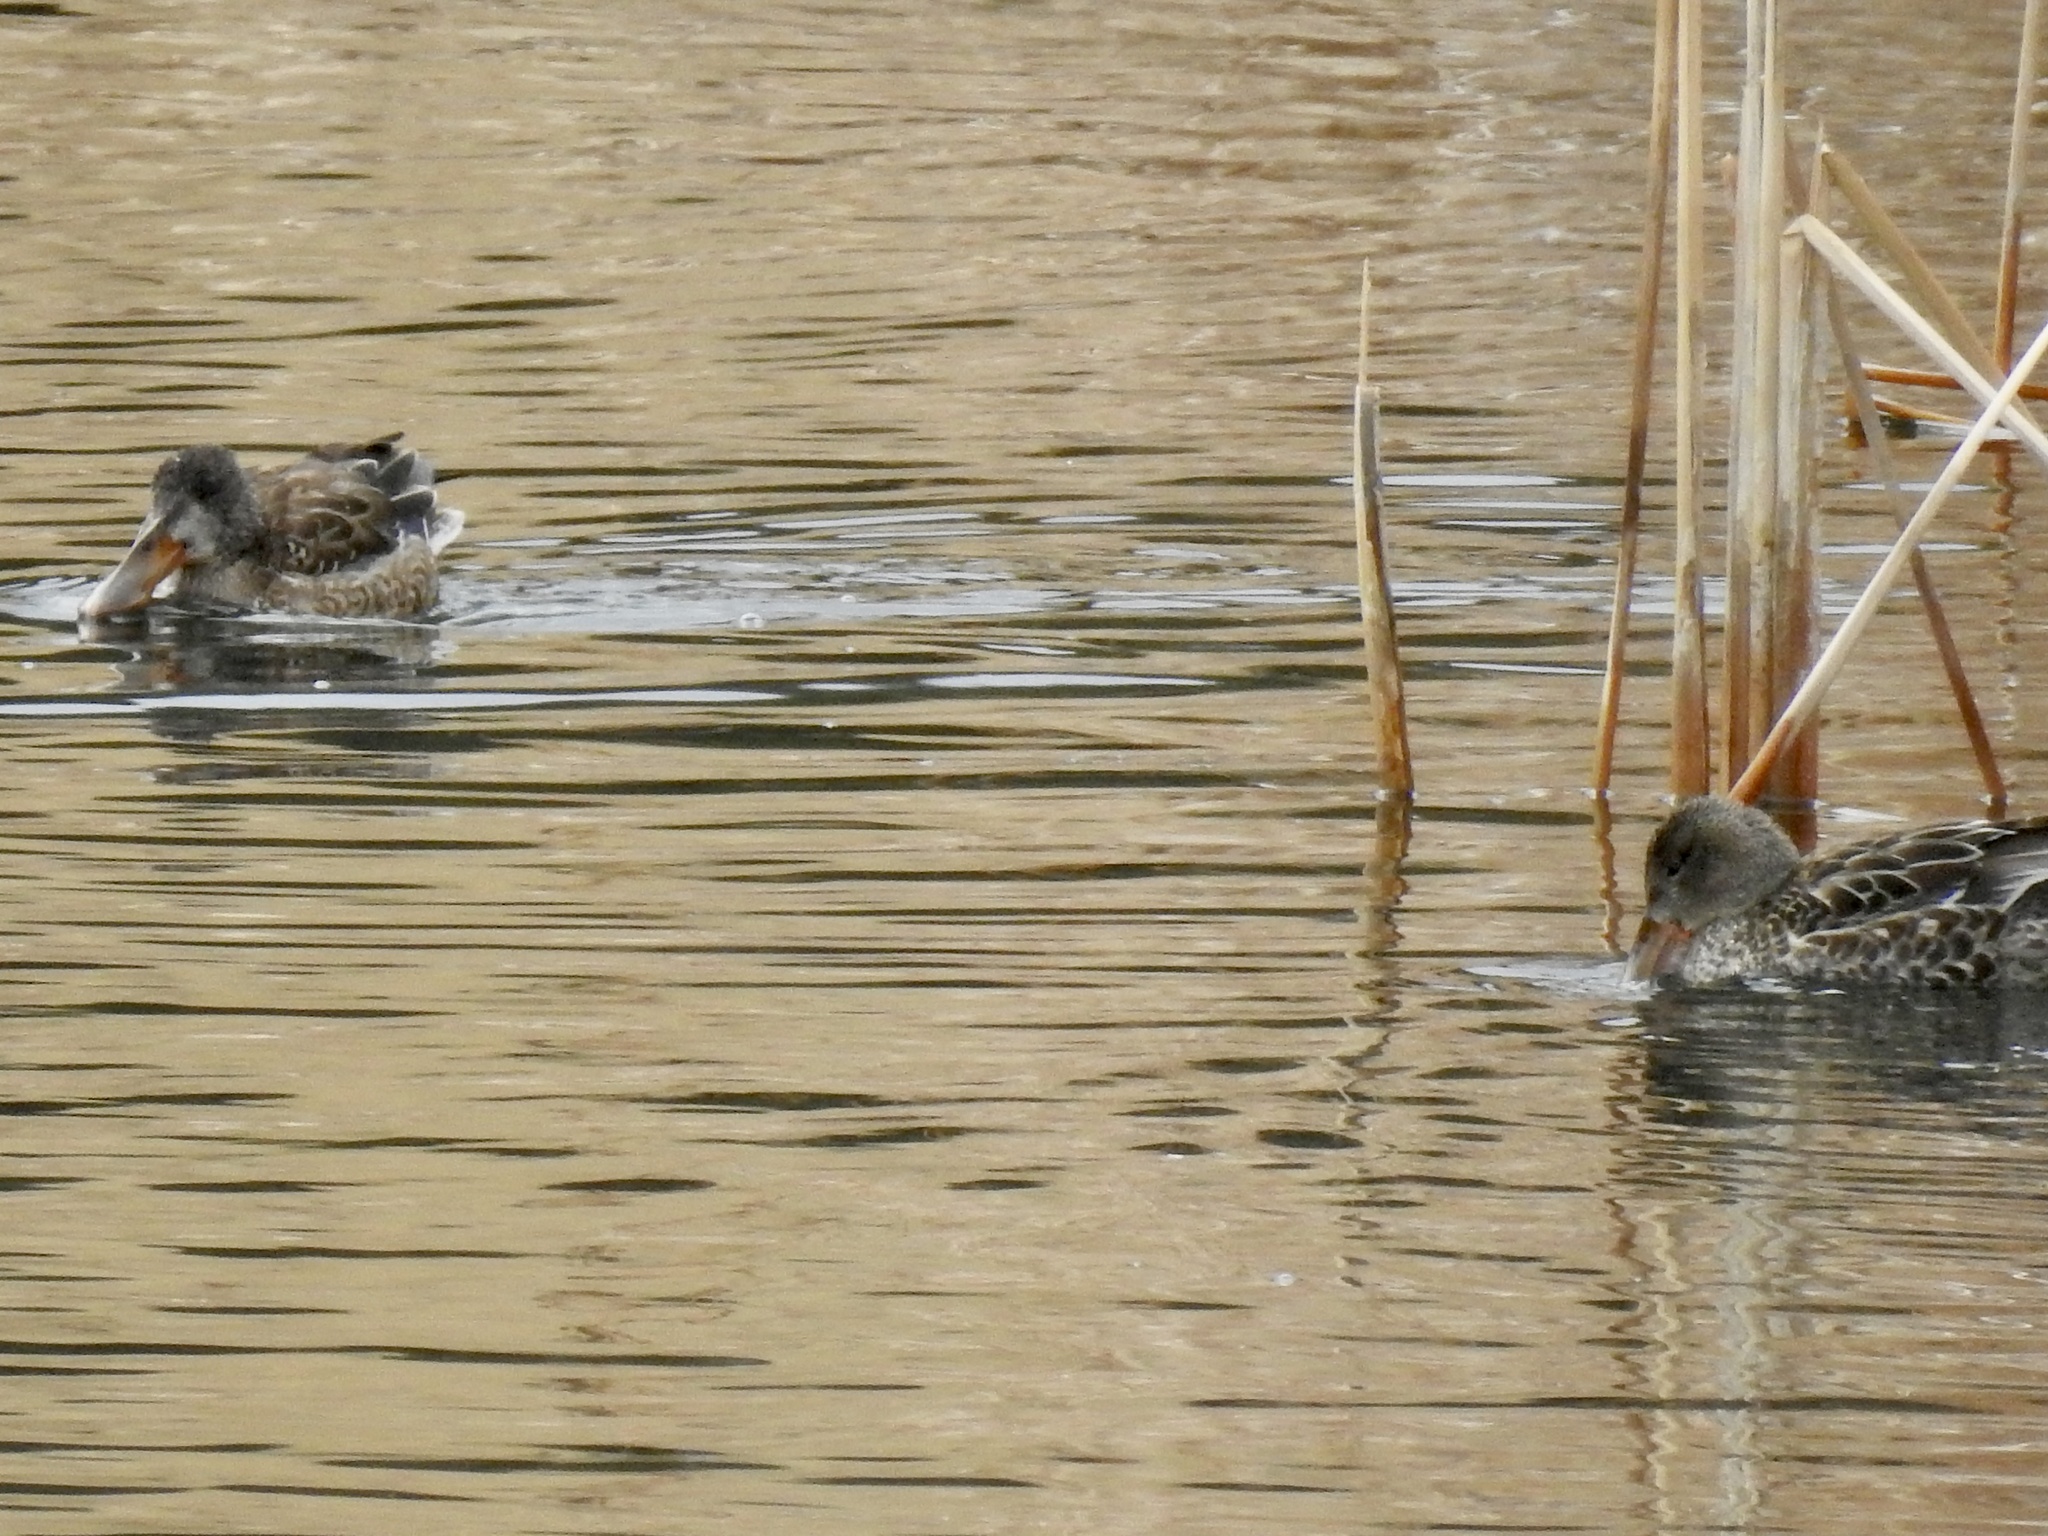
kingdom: Animalia
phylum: Chordata
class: Aves
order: Anseriformes
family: Anatidae
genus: Spatula
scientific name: Spatula clypeata
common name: Northern shoveler
